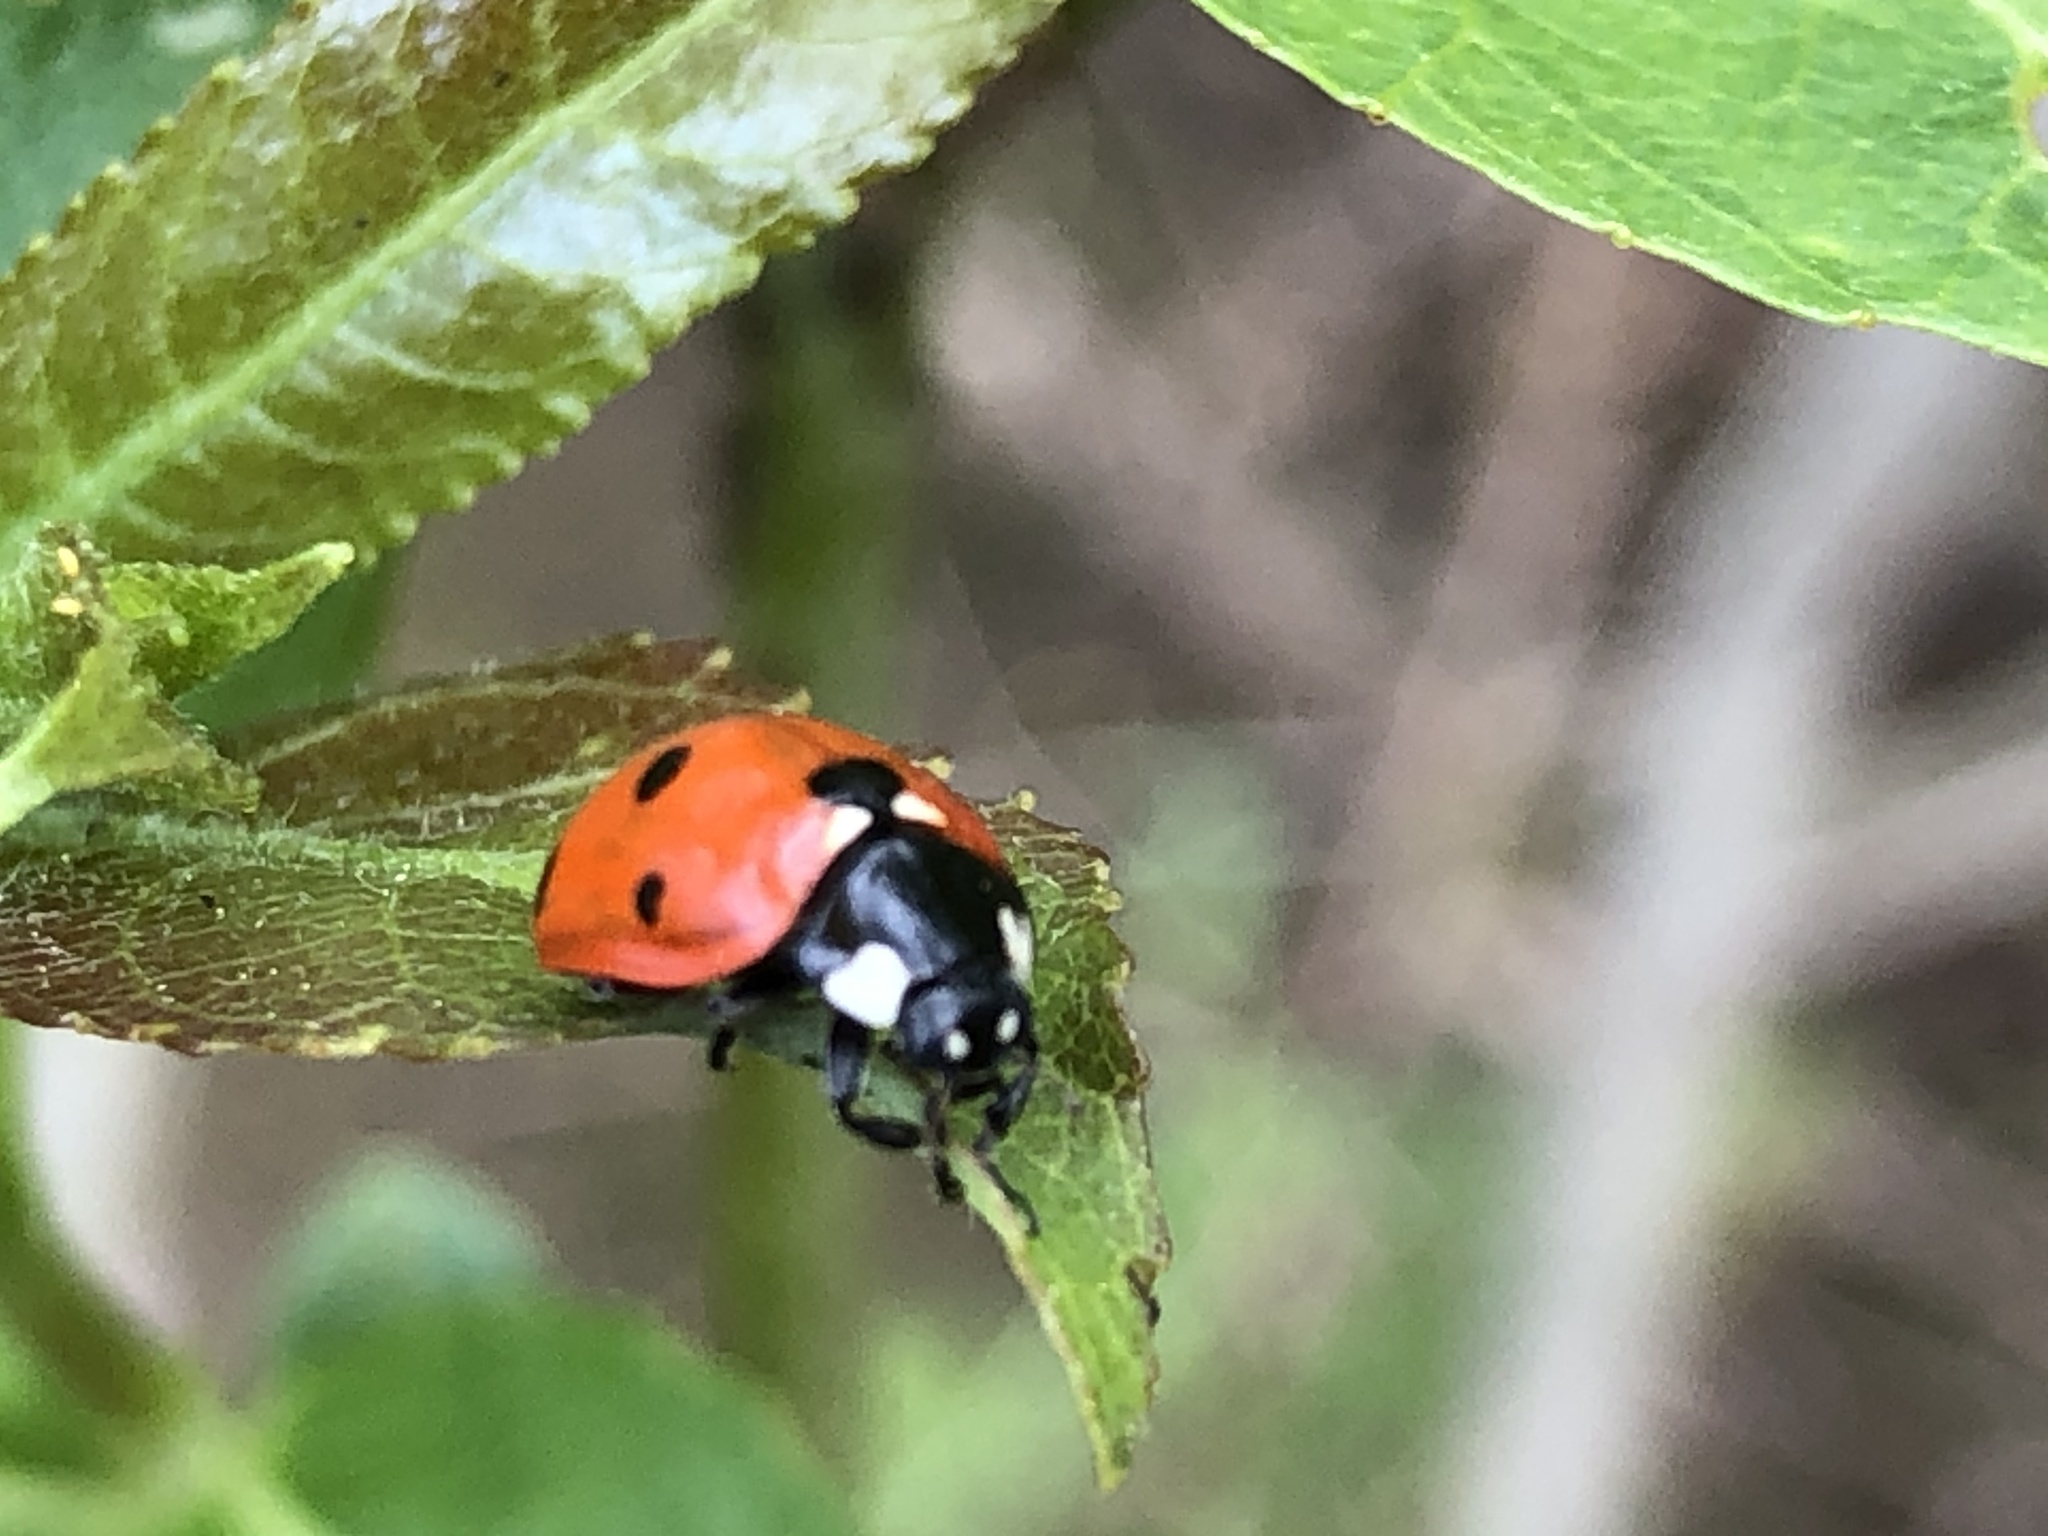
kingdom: Animalia
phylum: Arthropoda
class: Insecta
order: Coleoptera
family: Coccinellidae
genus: Coccinella
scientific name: Coccinella septempunctata
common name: Sevenspotted lady beetle
